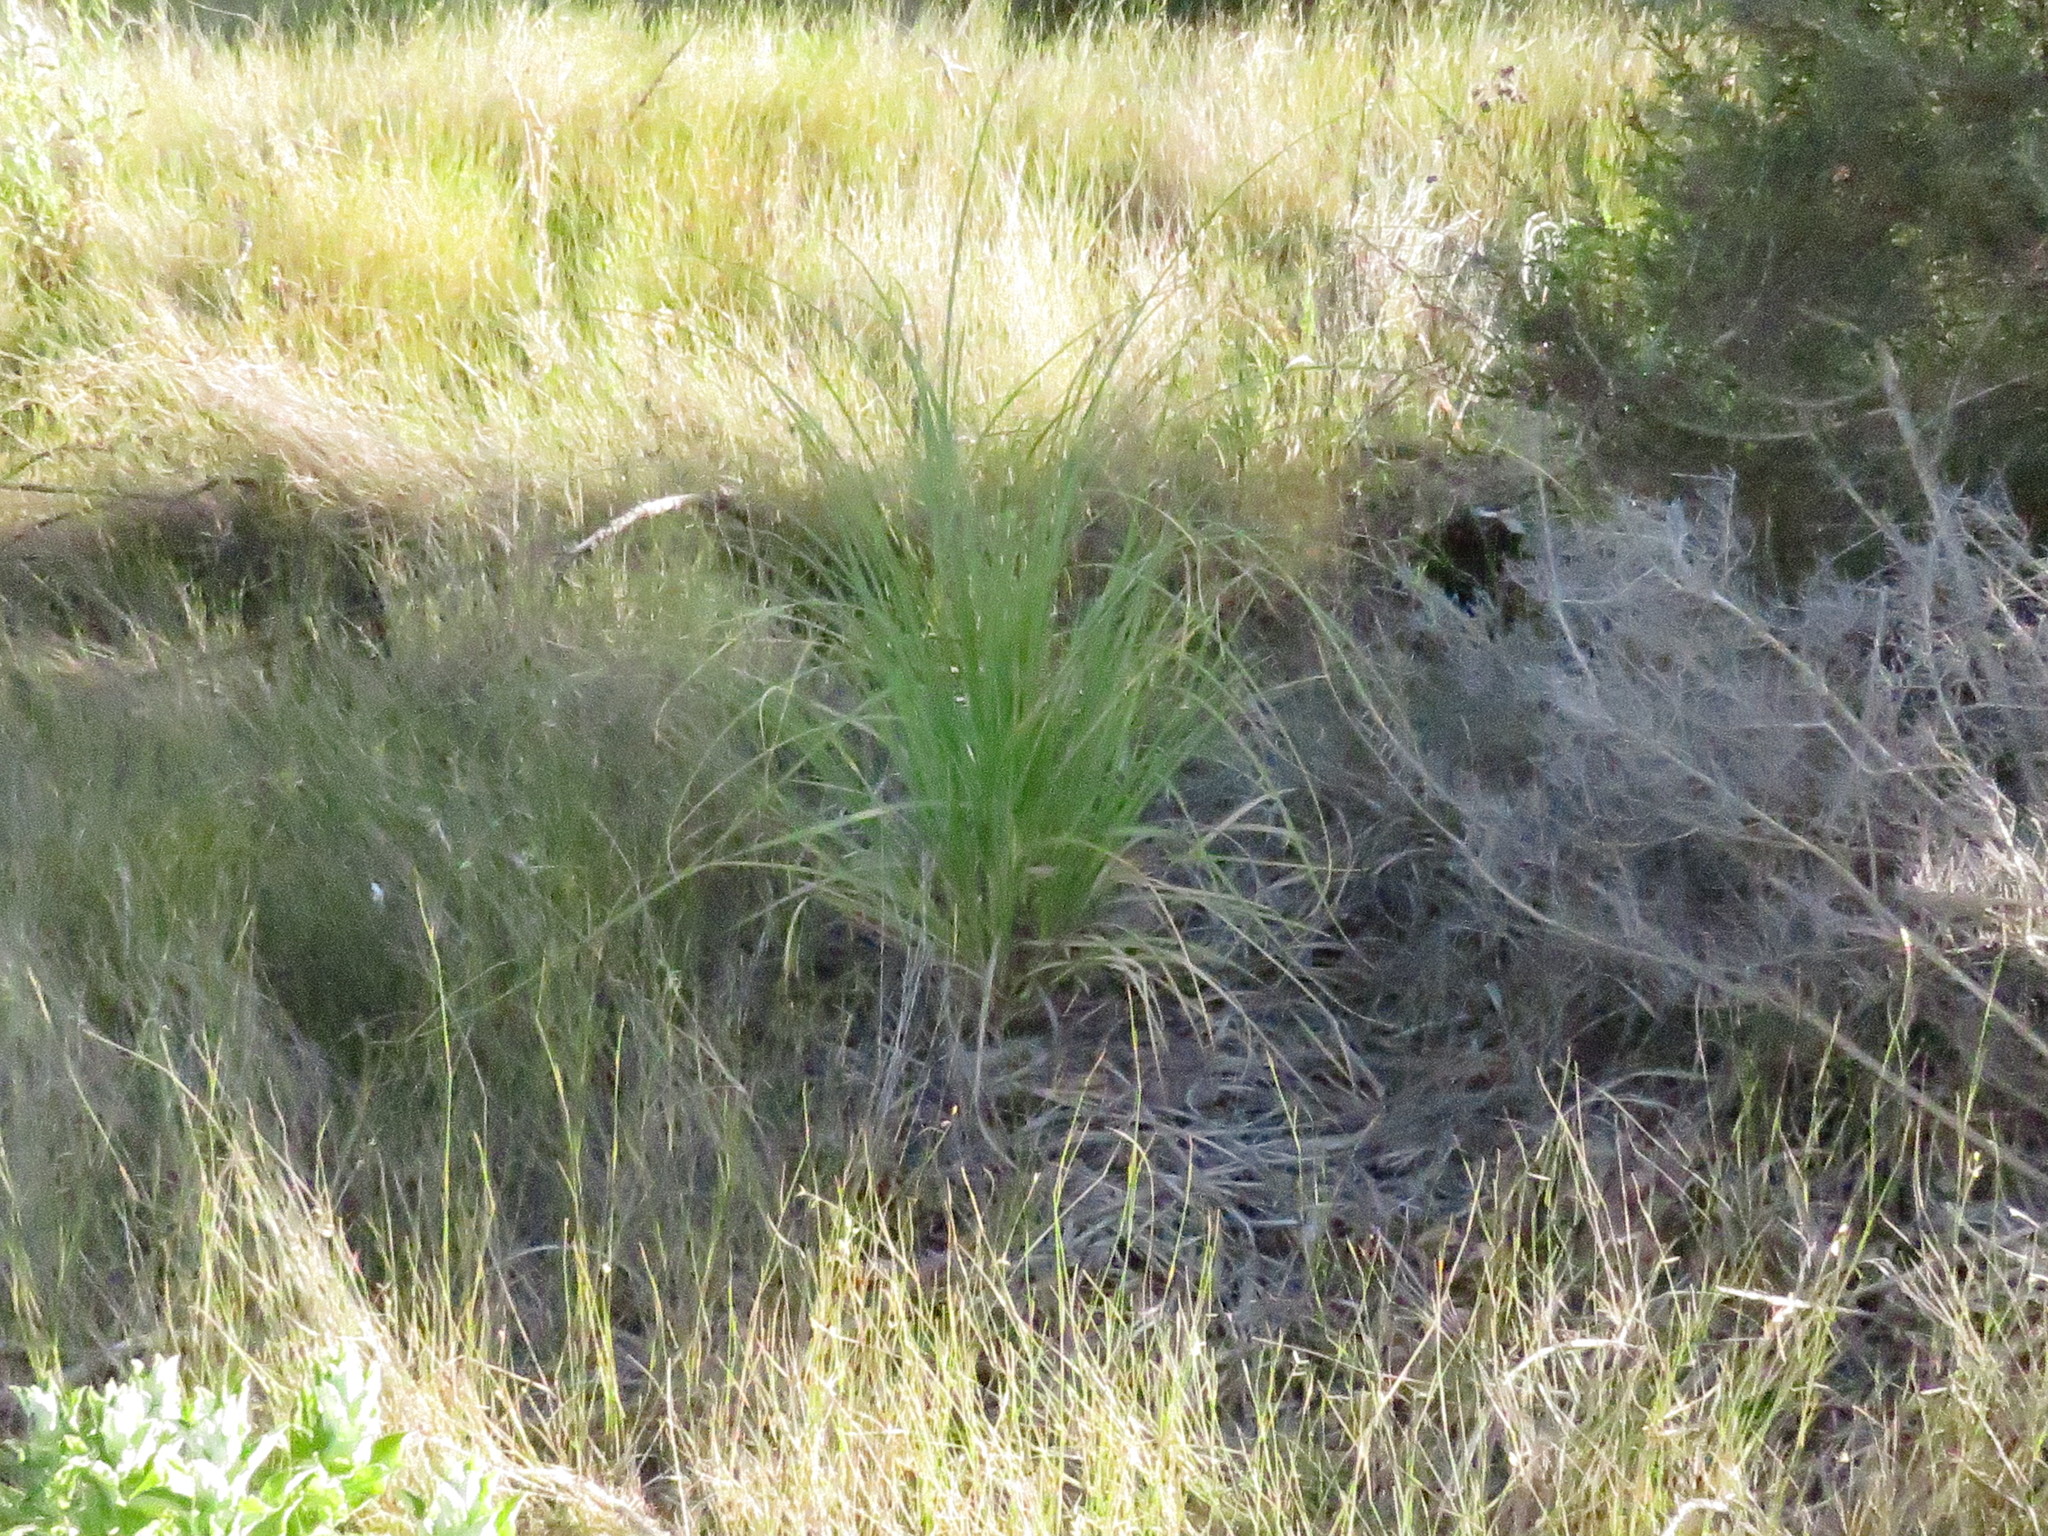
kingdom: Plantae
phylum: Tracheophyta
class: Liliopsida
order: Poales
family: Poaceae
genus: Cortaderia
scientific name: Cortaderia selloana
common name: Uruguayan pampas grass
